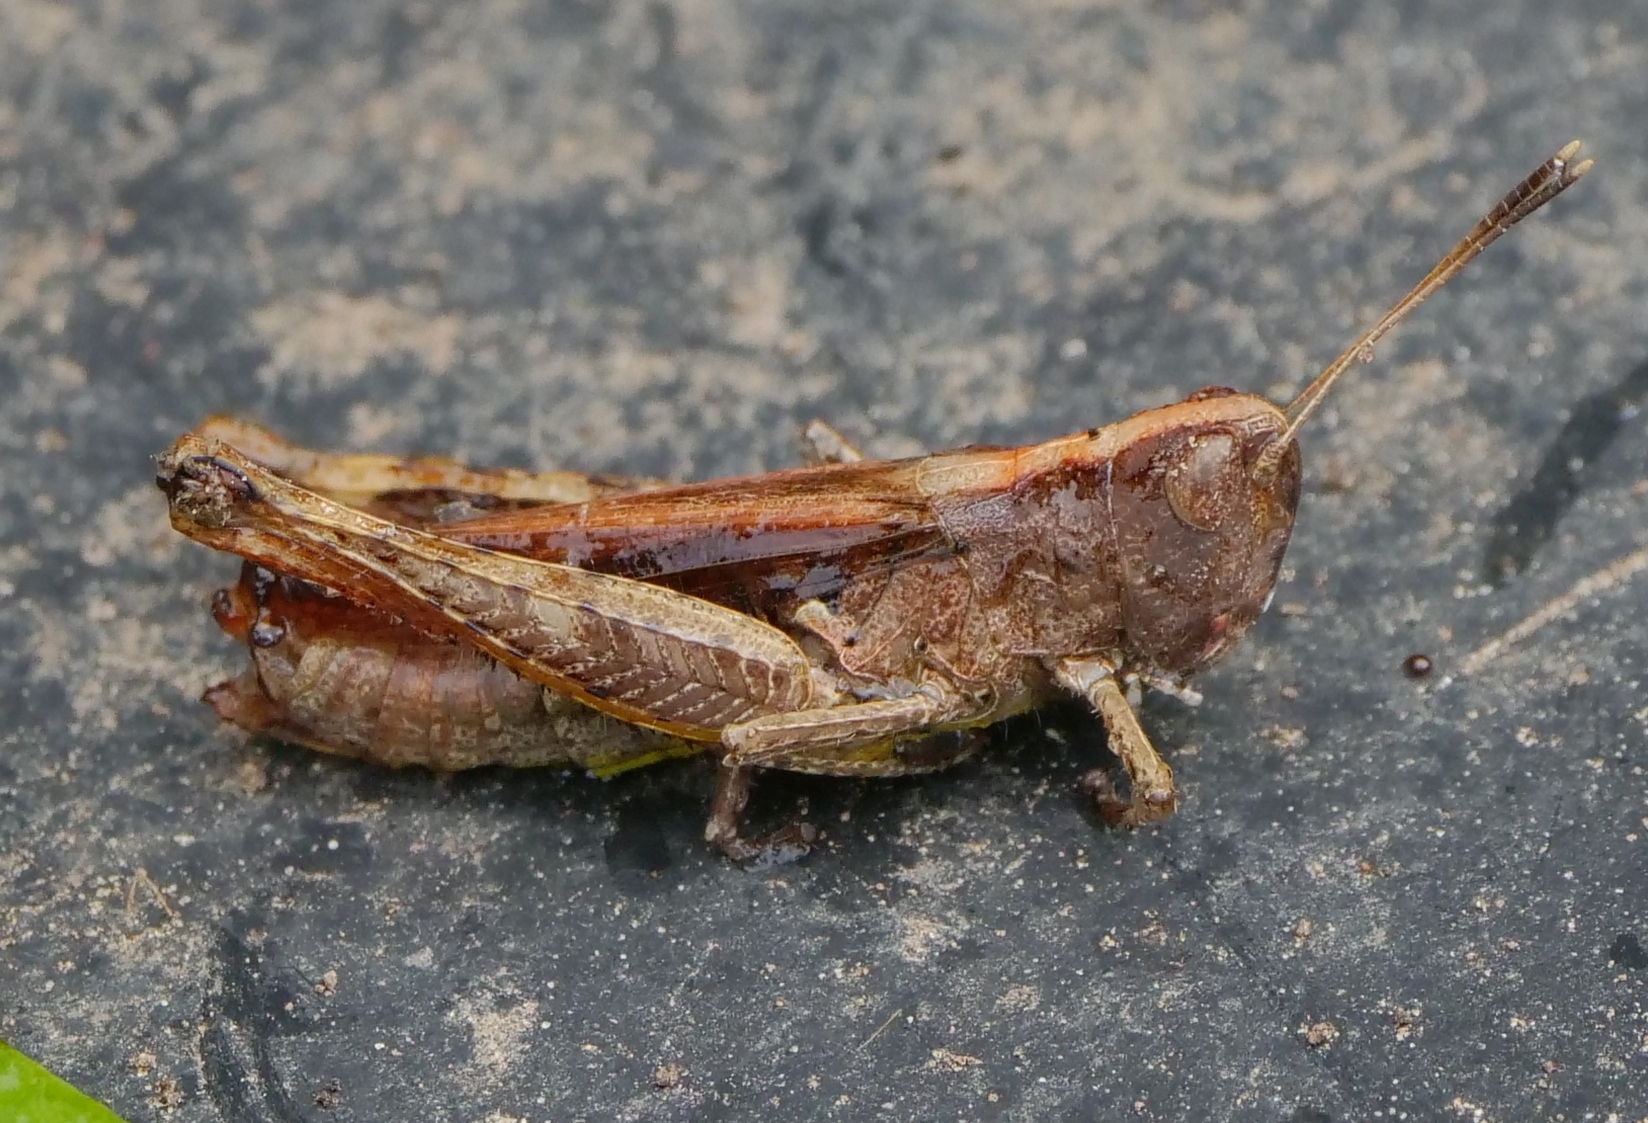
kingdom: Animalia
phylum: Arthropoda
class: Insecta
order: Orthoptera
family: Acrididae
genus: Gomphocerippus
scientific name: Gomphocerippus rufus
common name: Rufous grasshopper
